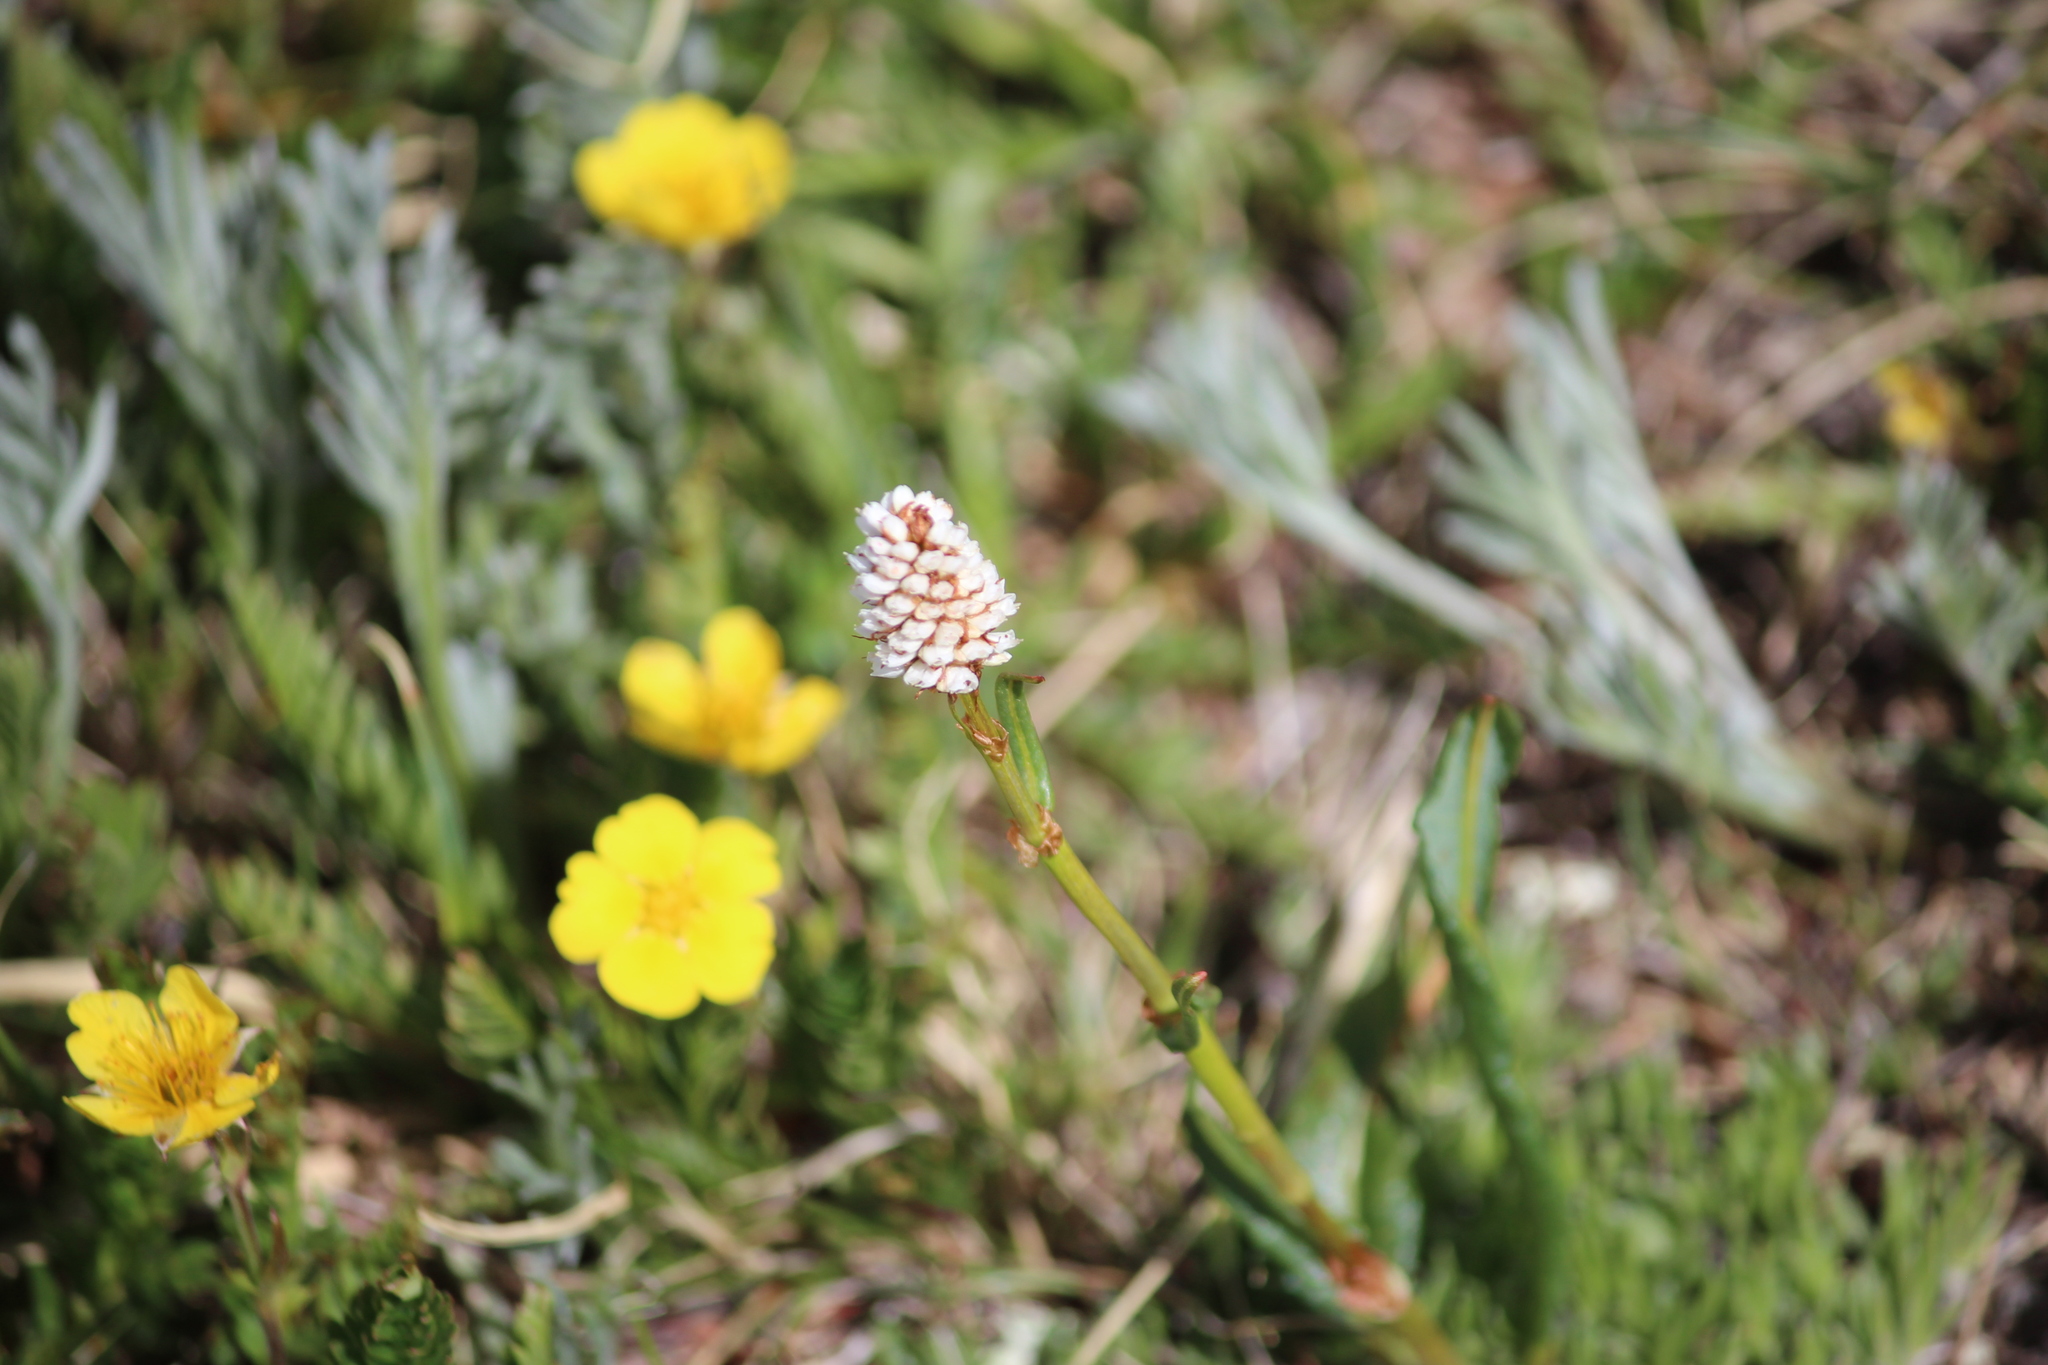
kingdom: Plantae
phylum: Tracheophyta
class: Magnoliopsida
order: Caryophyllales
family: Polygonaceae
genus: Bistorta
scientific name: Bistorta vivipara
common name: Alpine bistort
